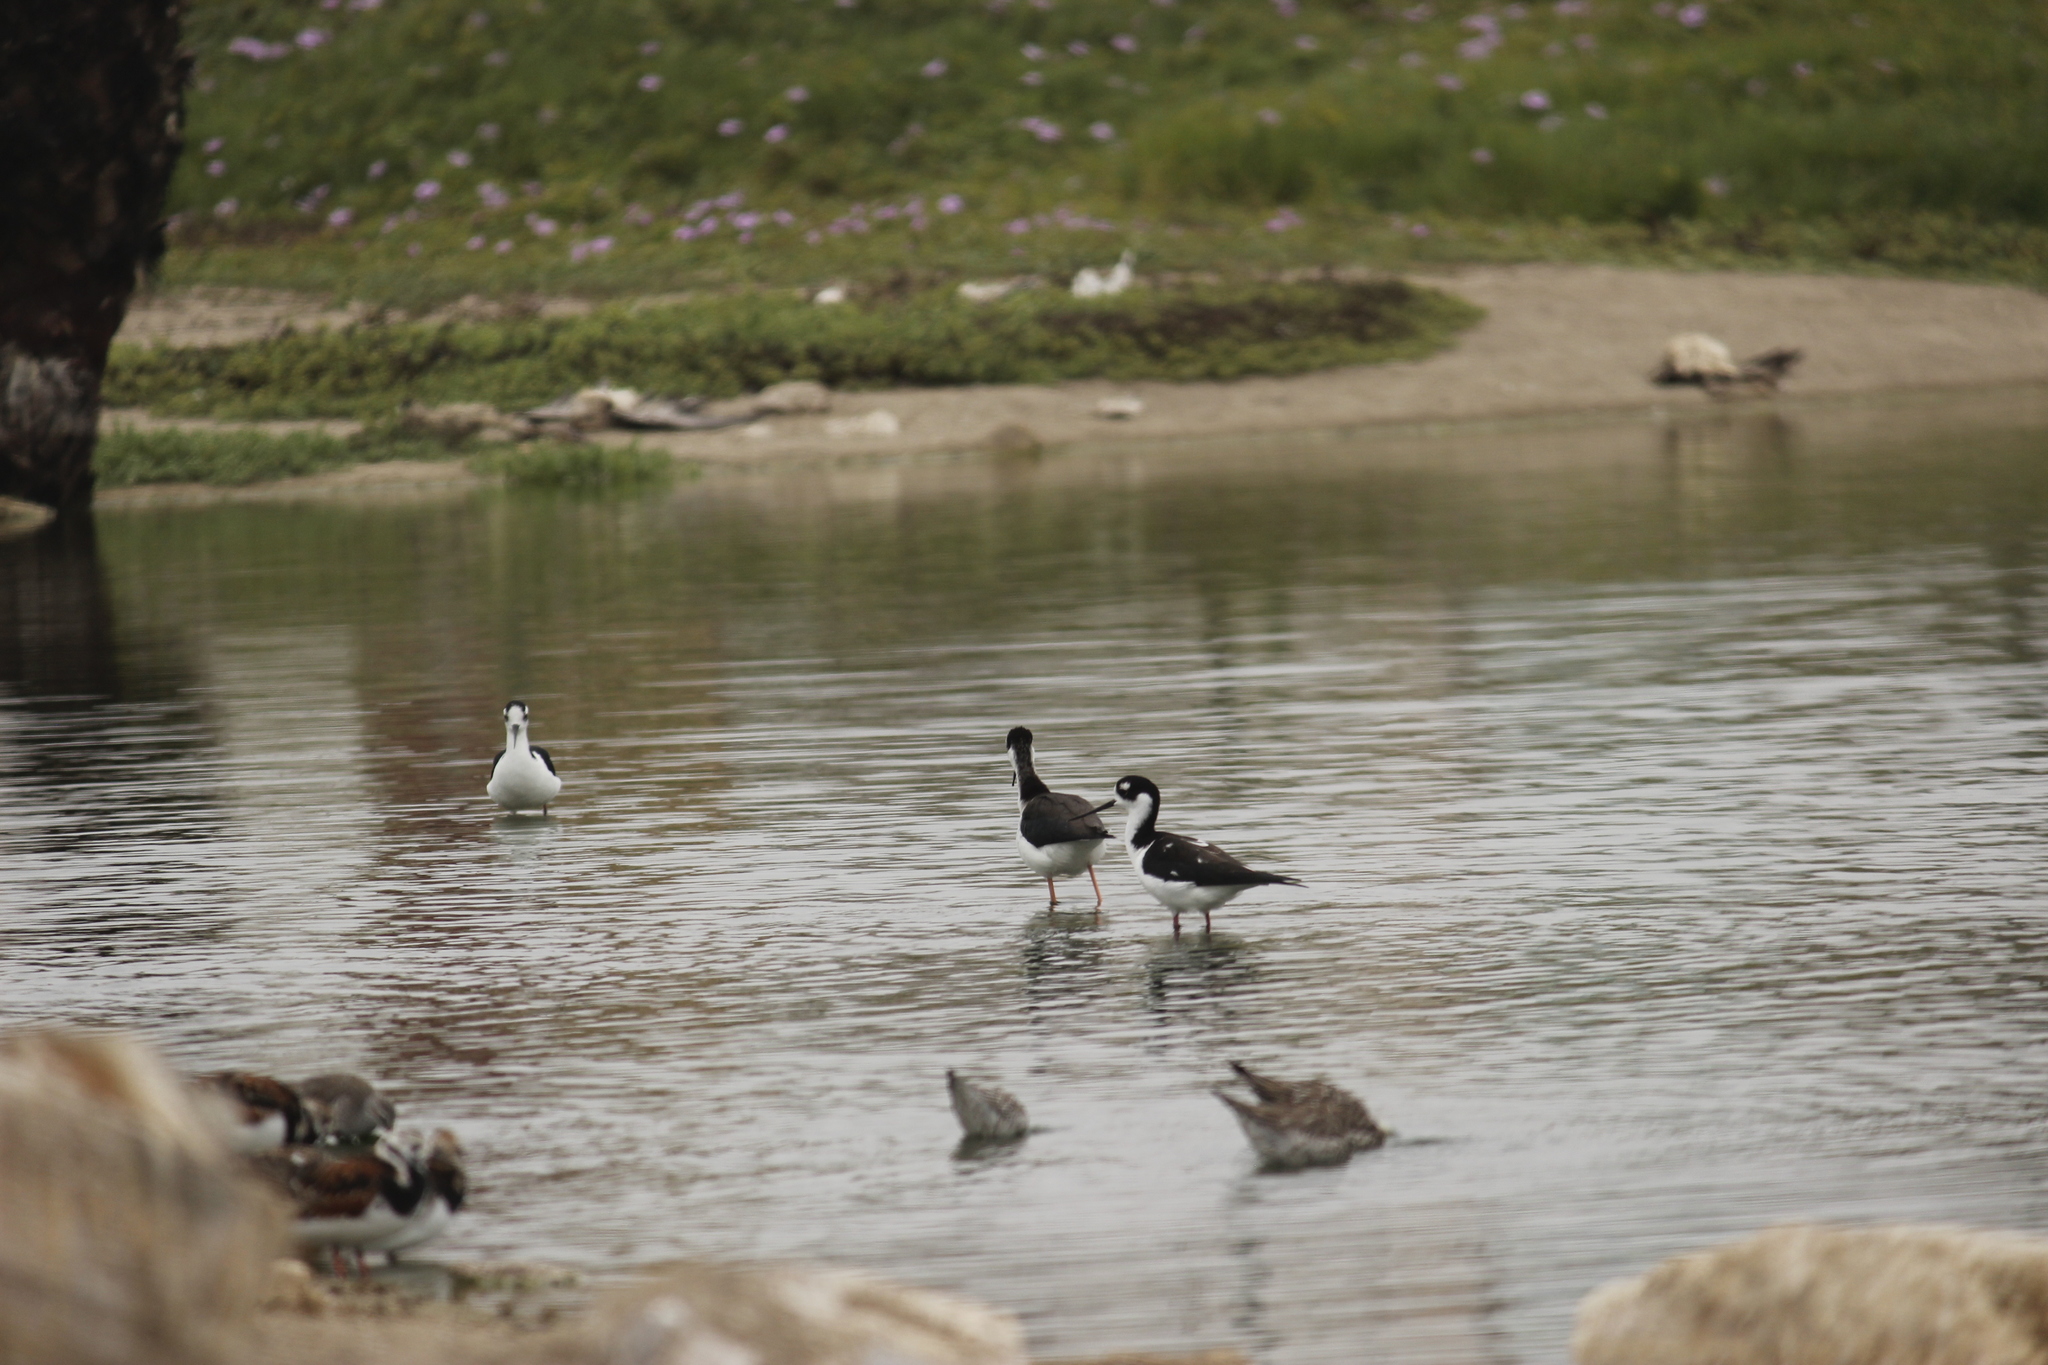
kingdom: Animalia
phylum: Chordata
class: Aves
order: Charadriiformes
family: Recurvirostridae
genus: Himantopus
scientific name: Himantopus mexicanus
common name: Black-necked stilt
